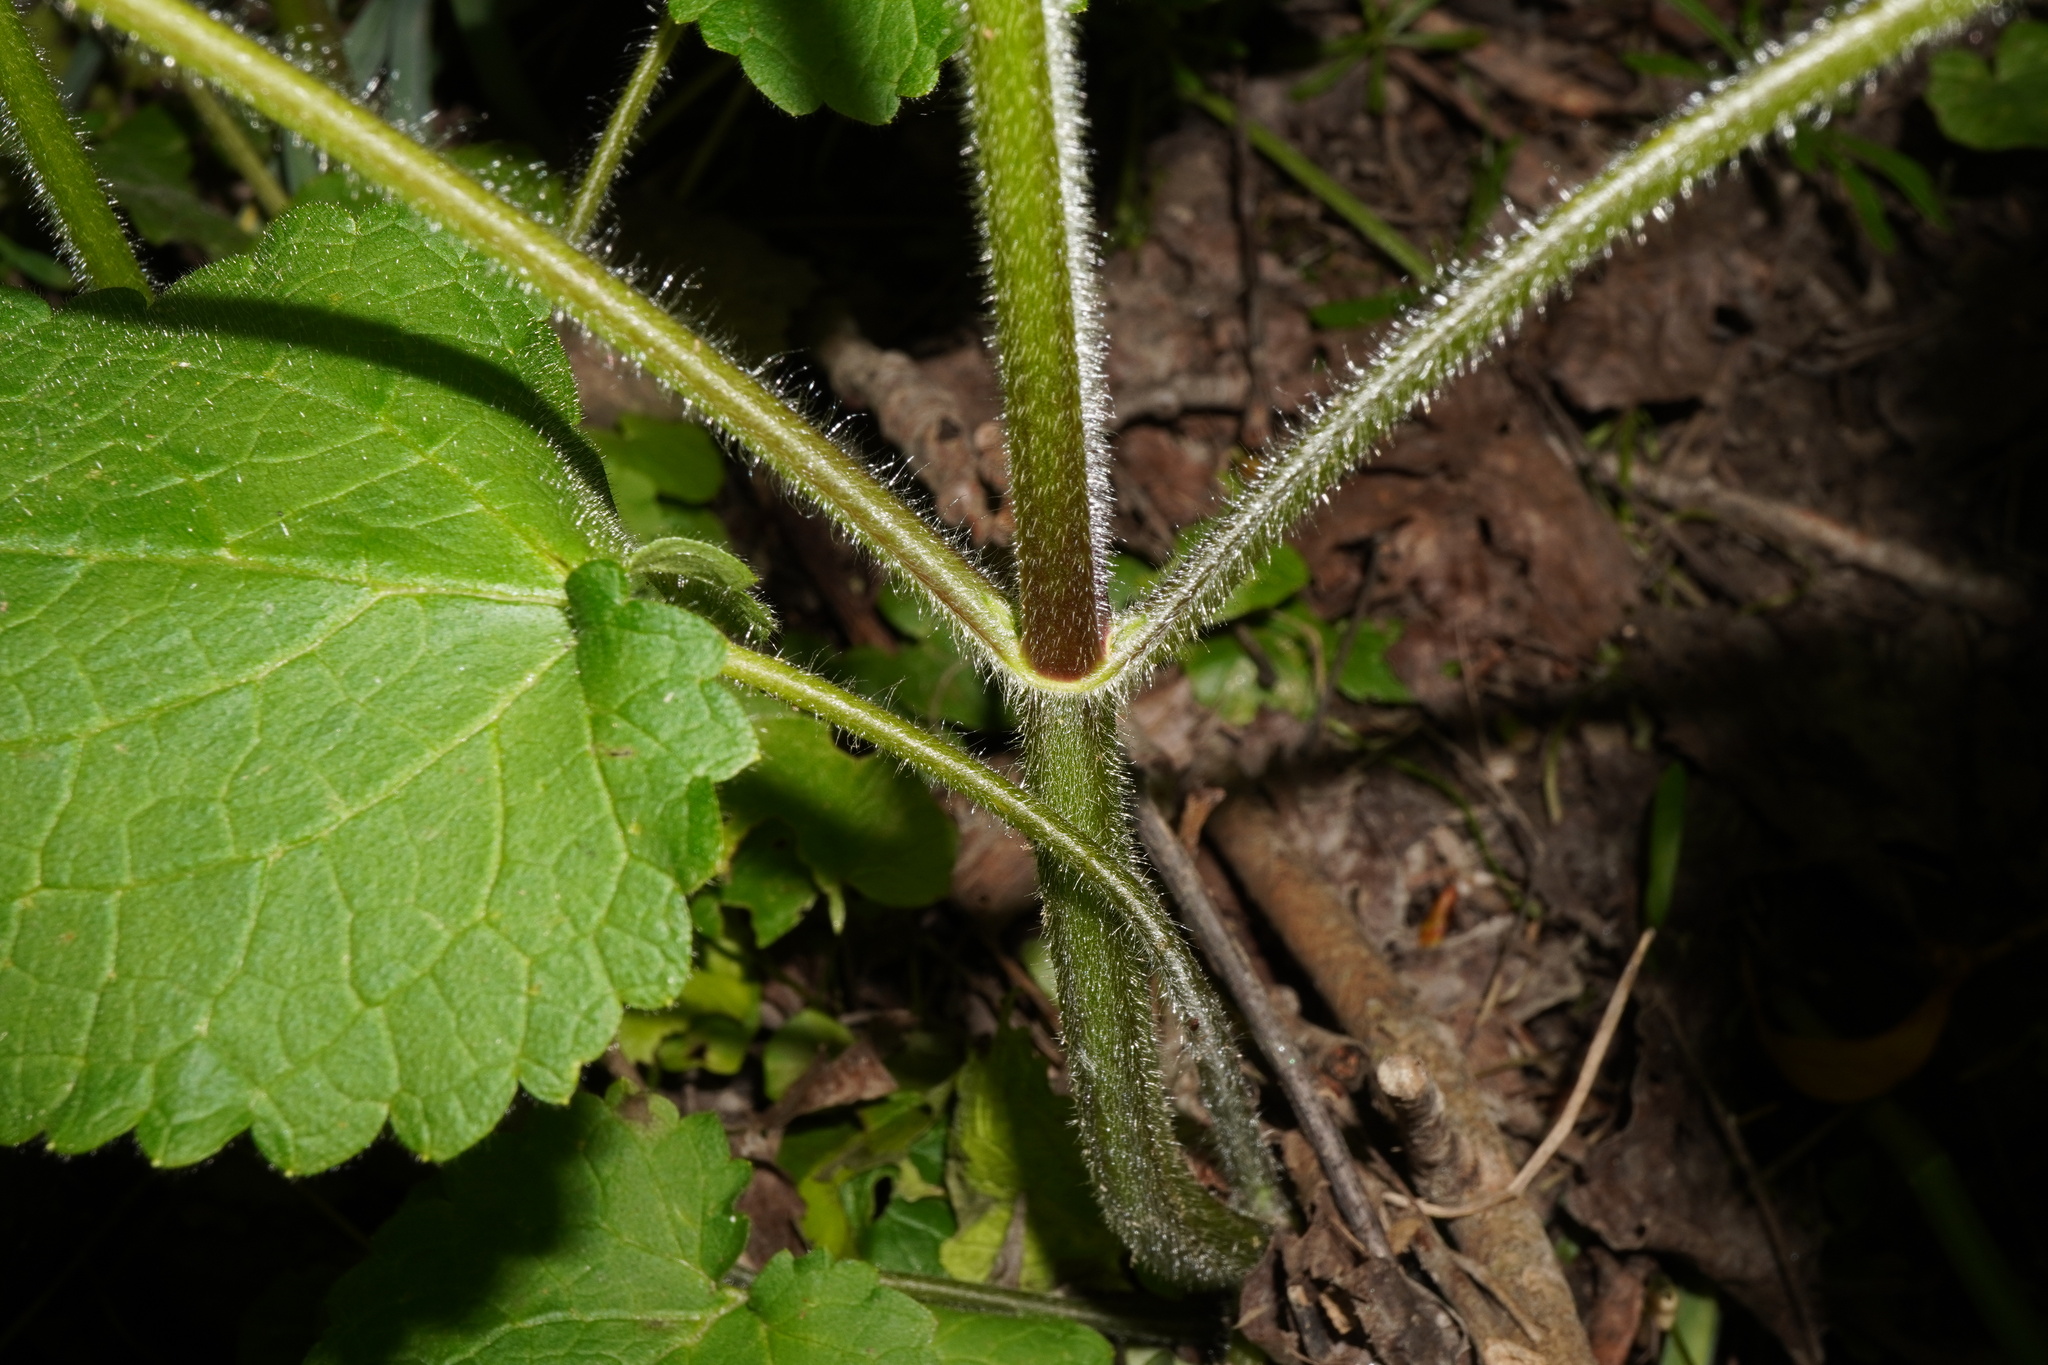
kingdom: Plantae
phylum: Tracheophyta
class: Magnoliopsida
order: Lamiales
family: Lamiaceae
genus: Stachys
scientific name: Stachys sylvatica
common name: Hedge woundwort
